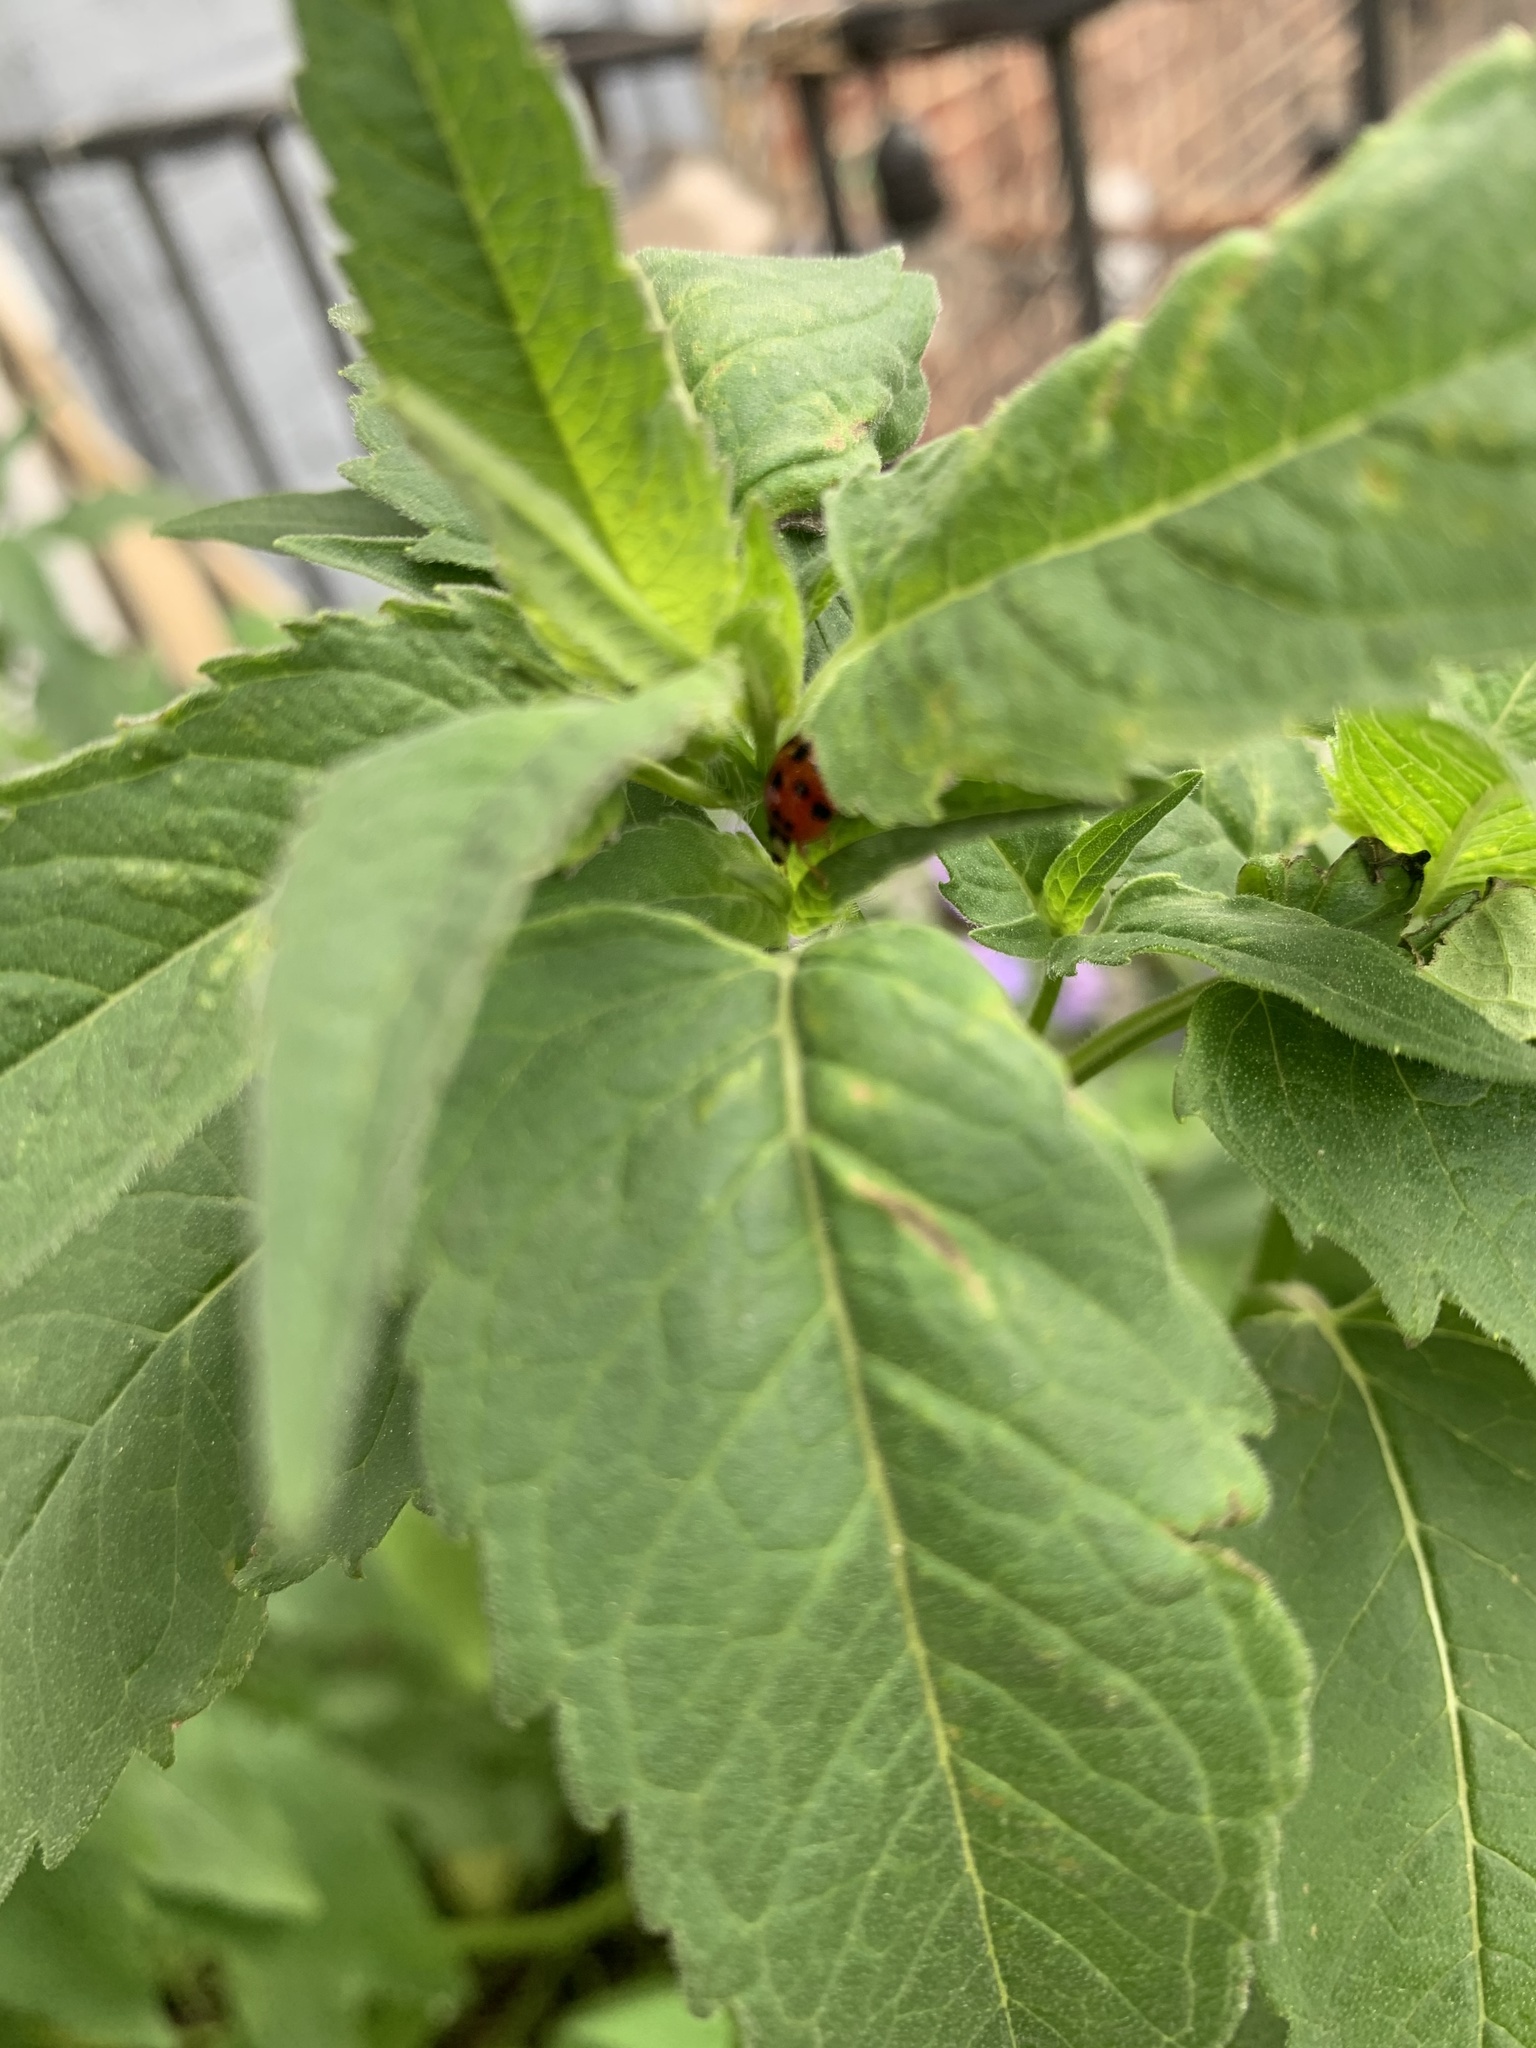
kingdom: Animalia
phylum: Arthropoda
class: Insecta
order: Coleoptera
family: Coccinellidae
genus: Harmonia
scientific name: Harmonia axyridis
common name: Harlequin ladybird
